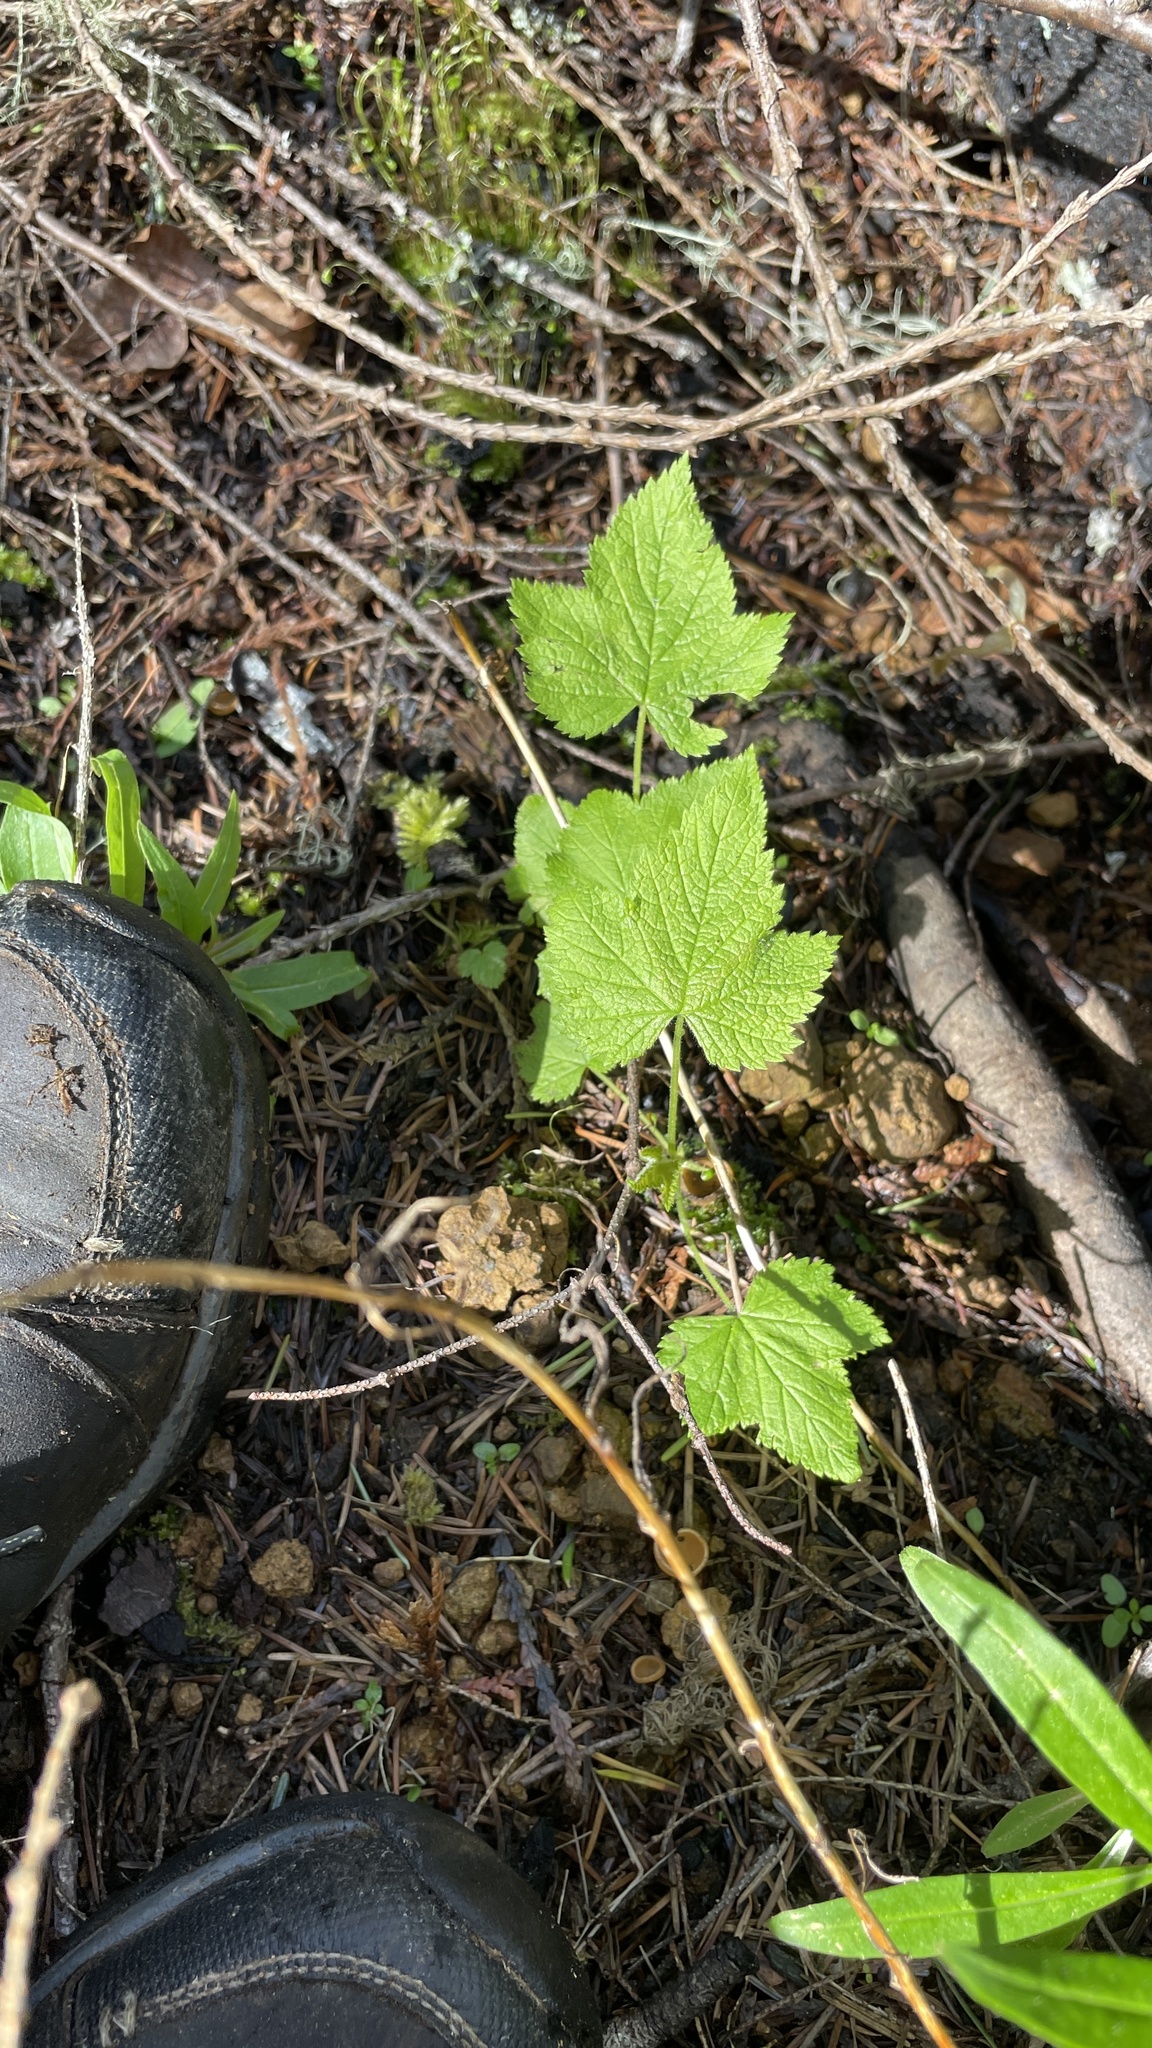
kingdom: Plantae
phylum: Tracheophyta
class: Magnoliopsida
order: Rosales
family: Rosaceae
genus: Rubus
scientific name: Rubus parviflorus
